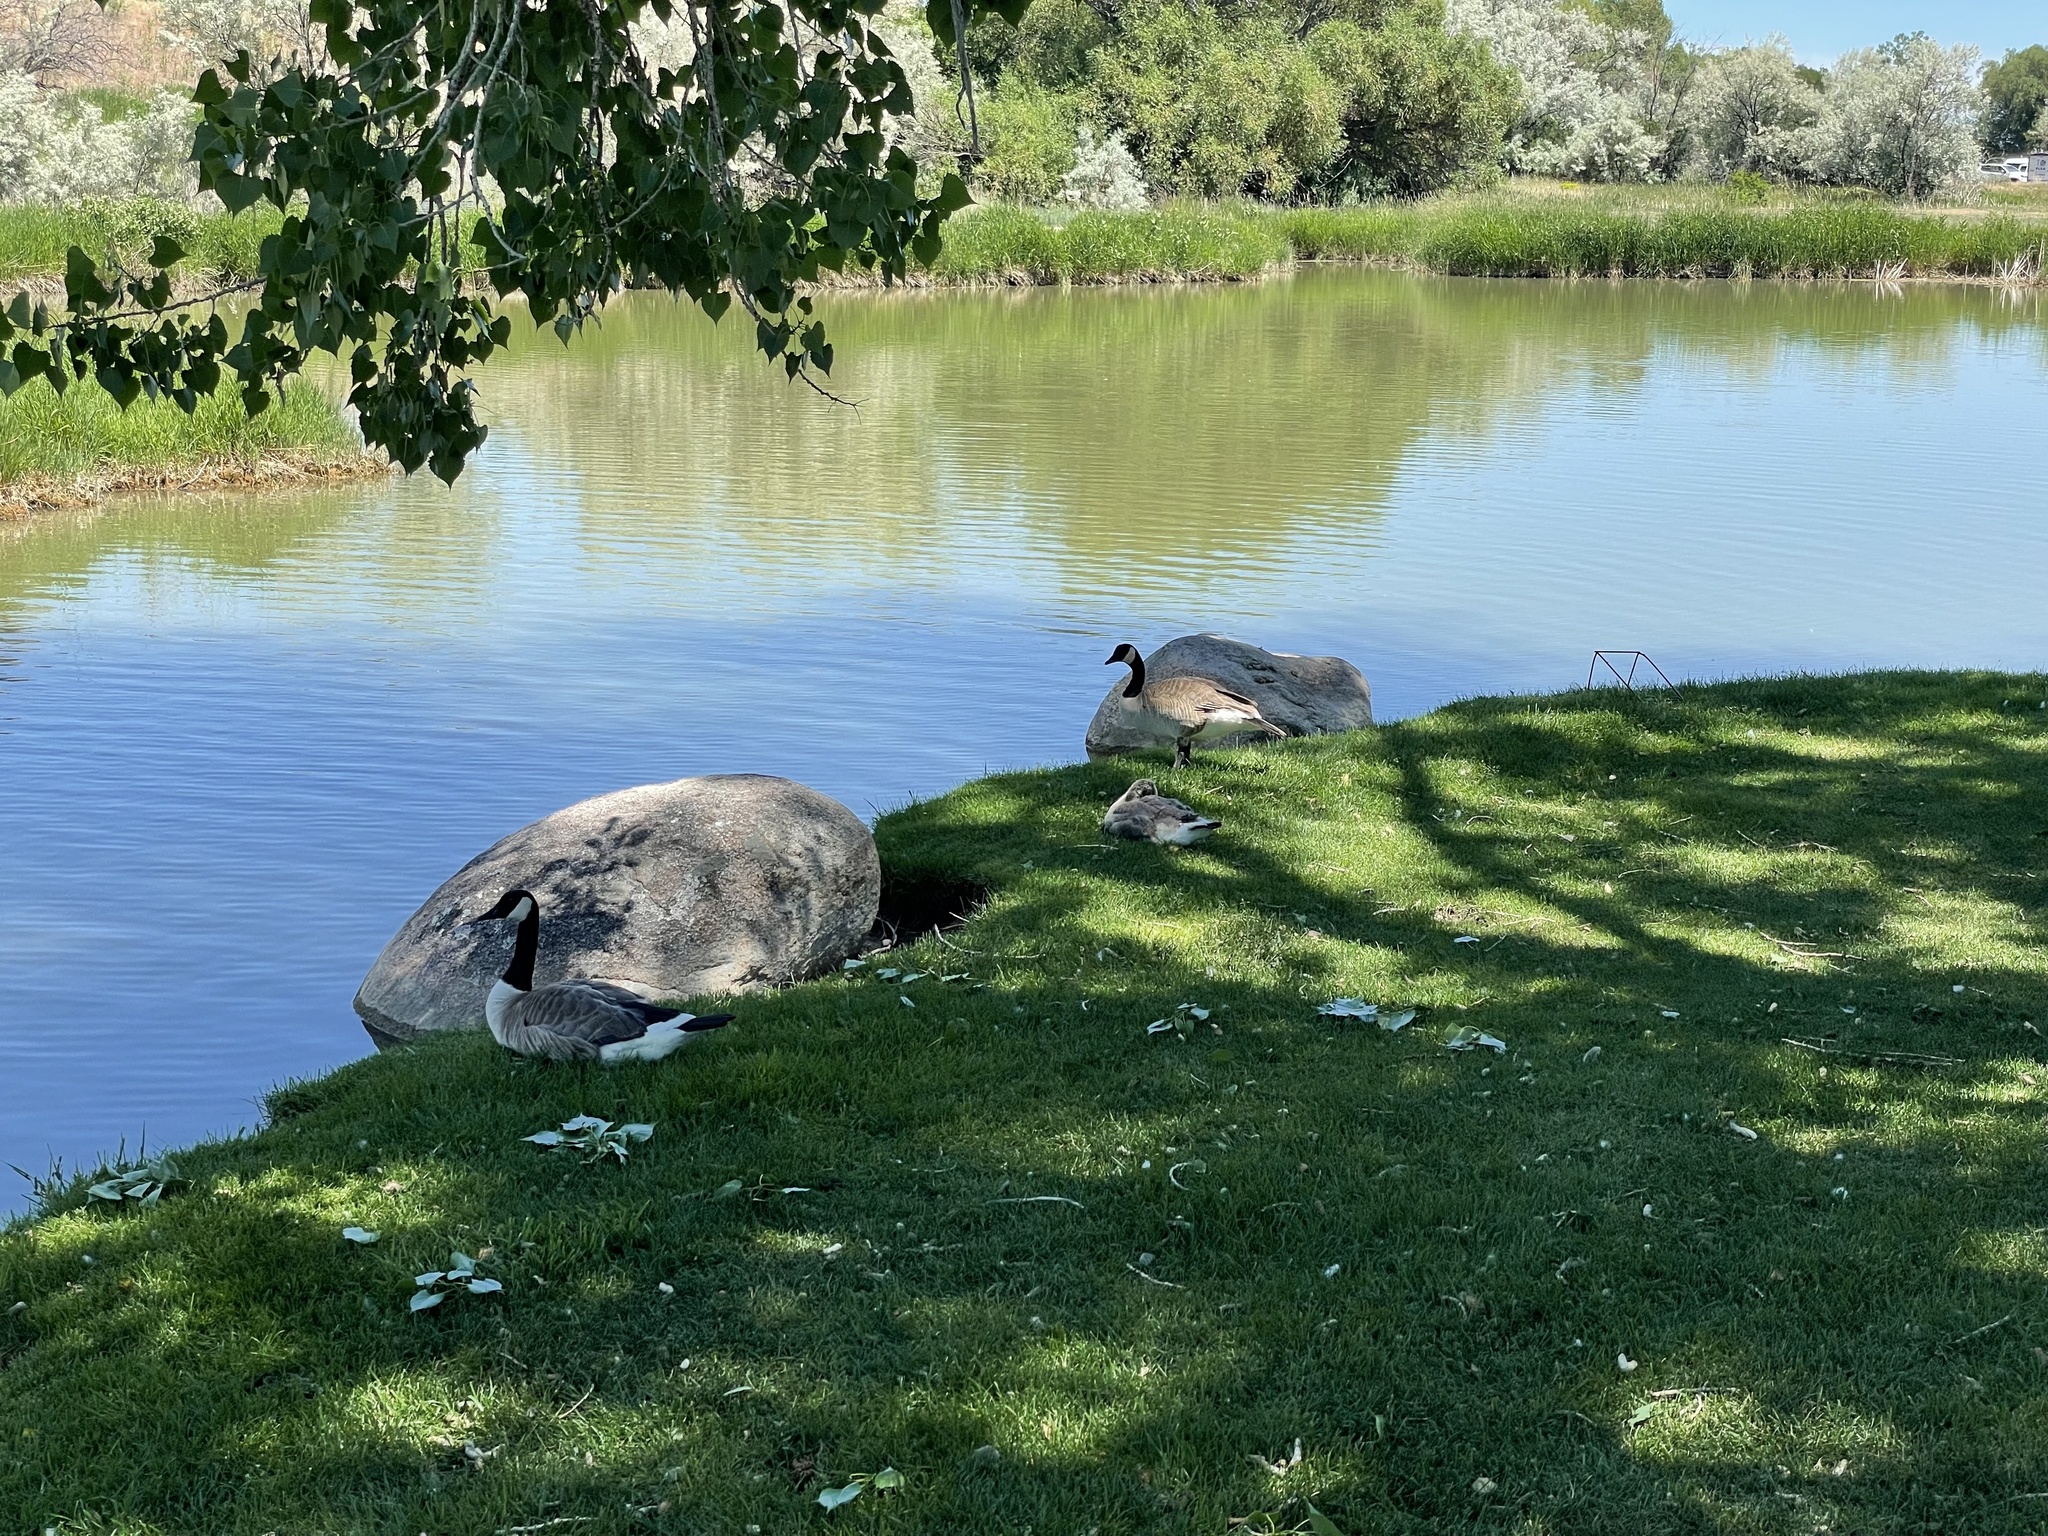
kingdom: Animalia
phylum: Chordata
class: Aves
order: Anseriformes
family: Anatidae
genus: Branta
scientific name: Branta canadensis
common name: Canada goose
